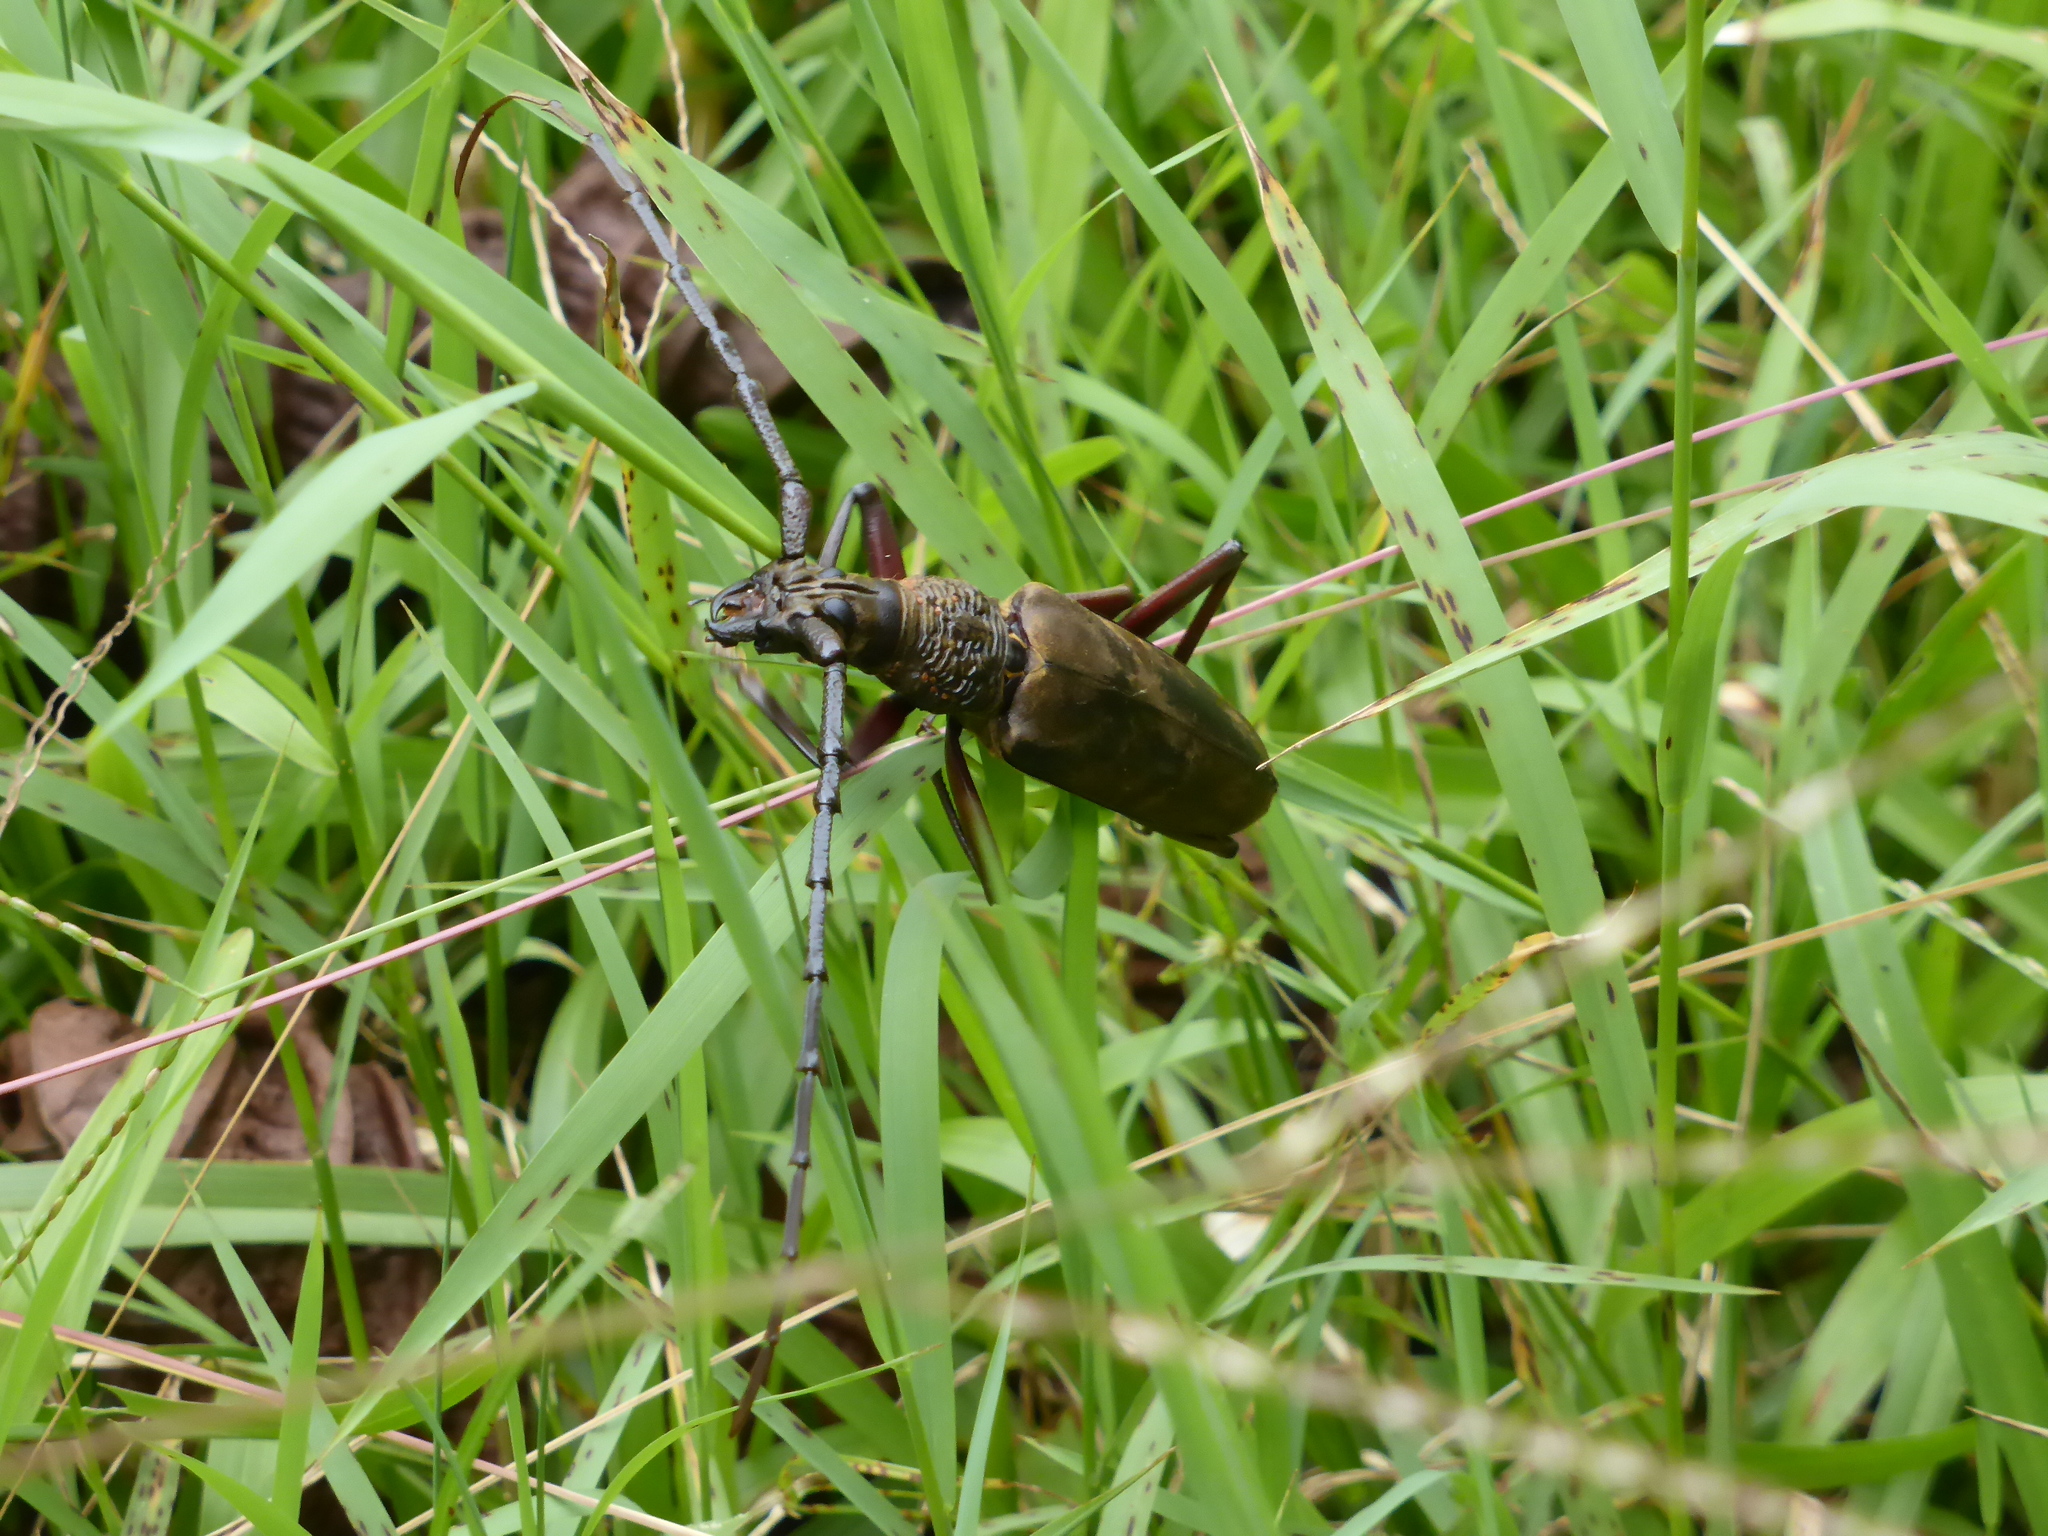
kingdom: Animalia
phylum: Arthropoda
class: Insecta
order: Coleoptera
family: Cerambycidae
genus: Hoplocerambyx
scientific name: Hoplocerambyx spinicornis
